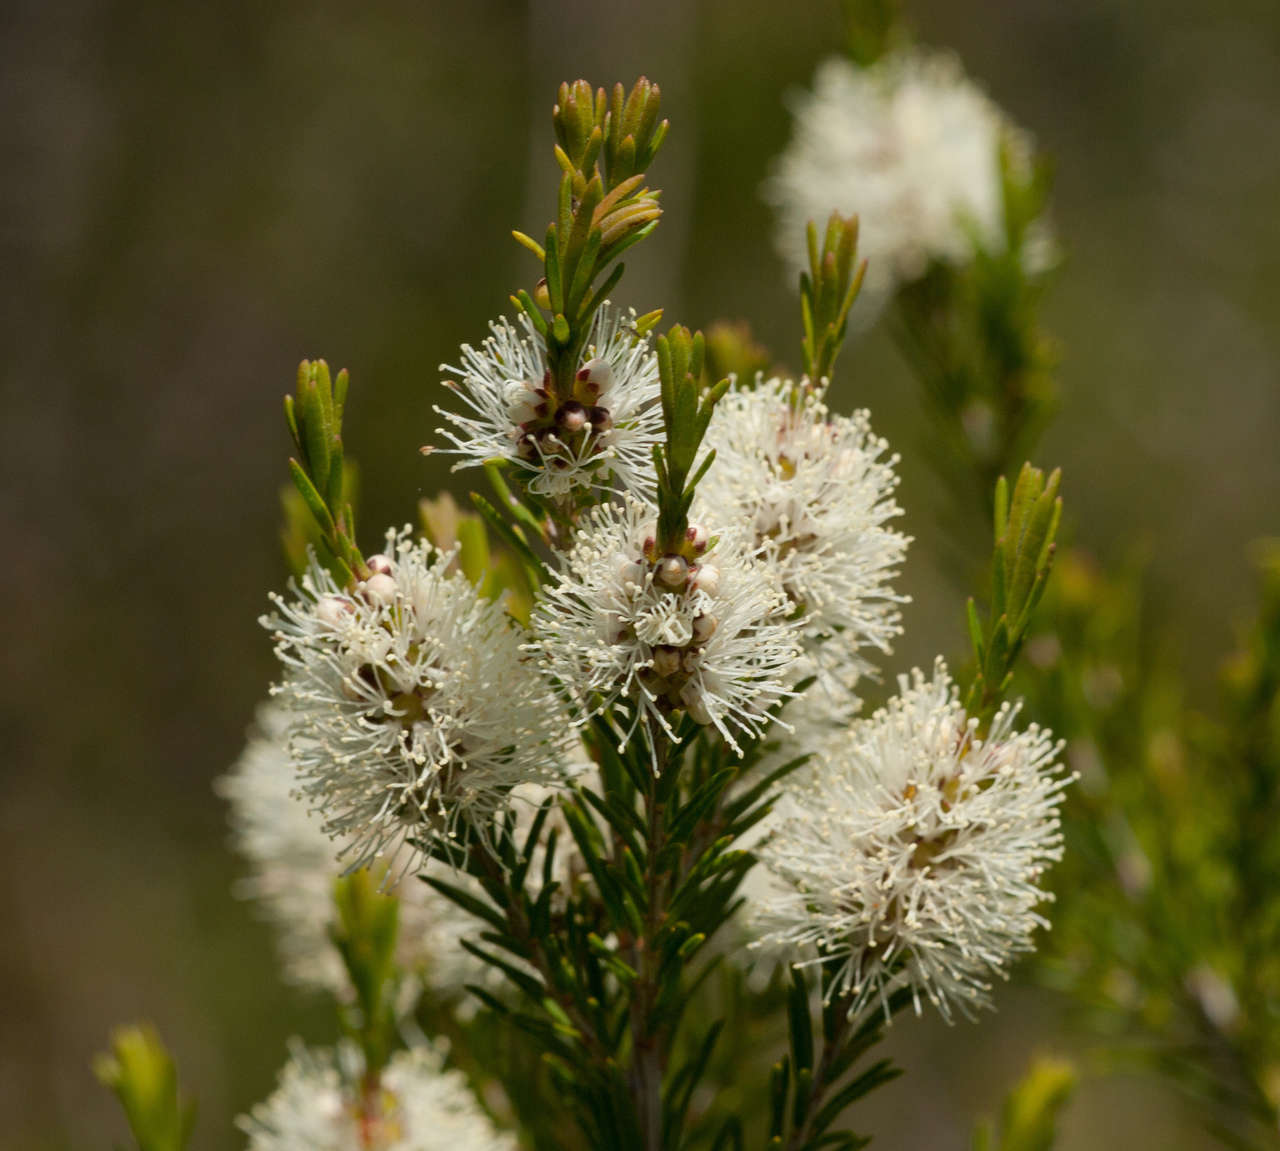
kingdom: Plantae
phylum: Tracheophyta
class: Magnoliopsida
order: Myrtales
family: Myrtaceae
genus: Melaleuca
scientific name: Melaleuca ericifolia
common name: Paperbark teatree
